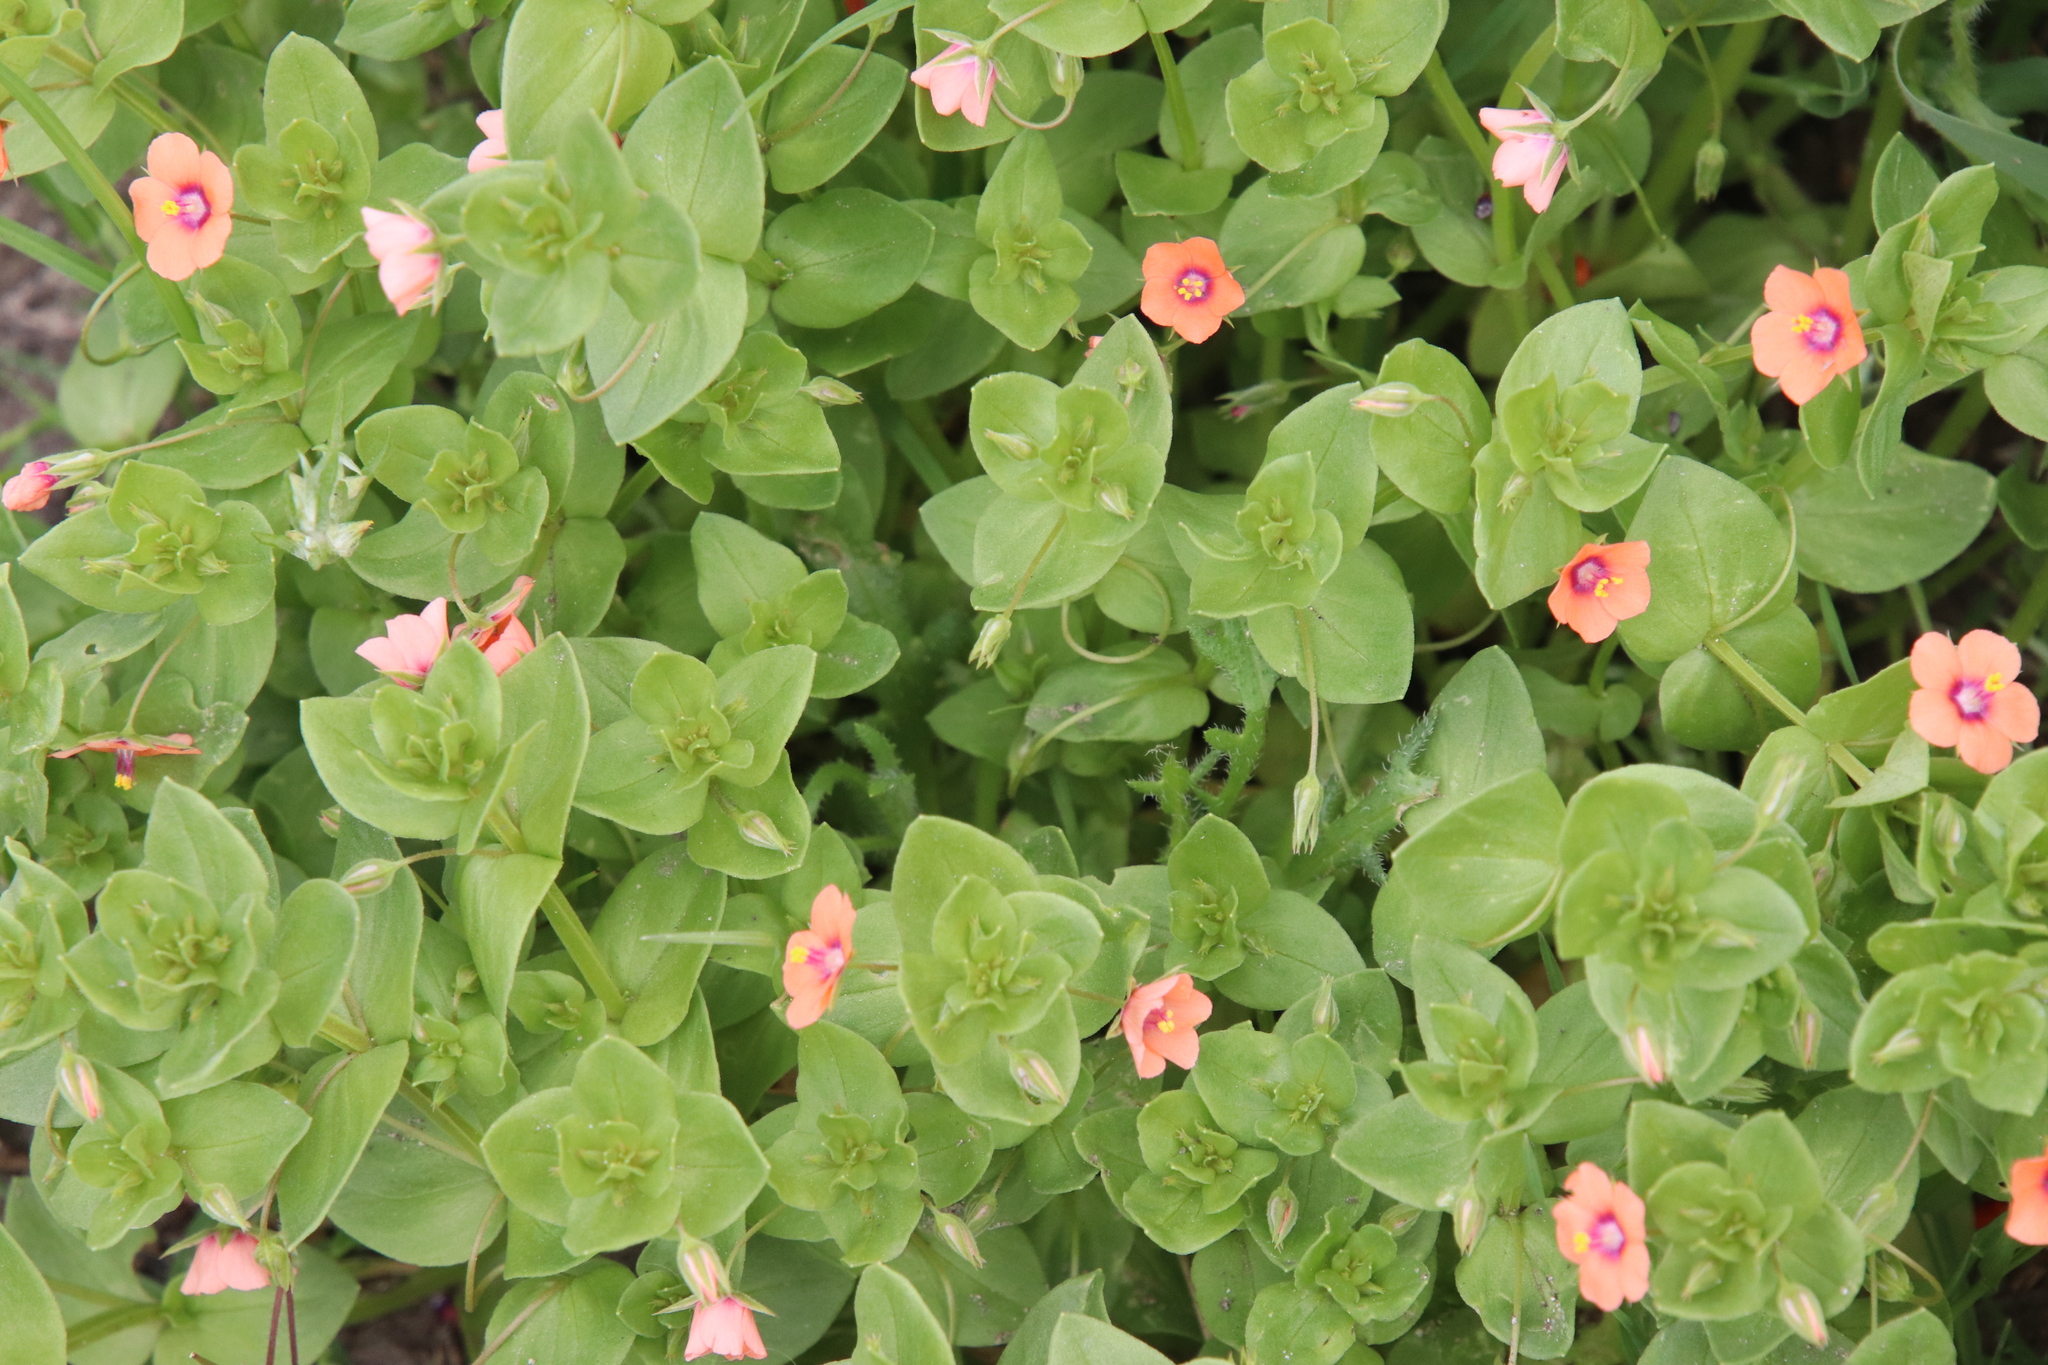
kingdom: Plantae
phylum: Tracheophyta
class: Magnoliopsida
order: Ericales
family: Primulaceae
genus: Lysimachia
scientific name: Lysimachia arvensis
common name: Scarlet pimpernel
